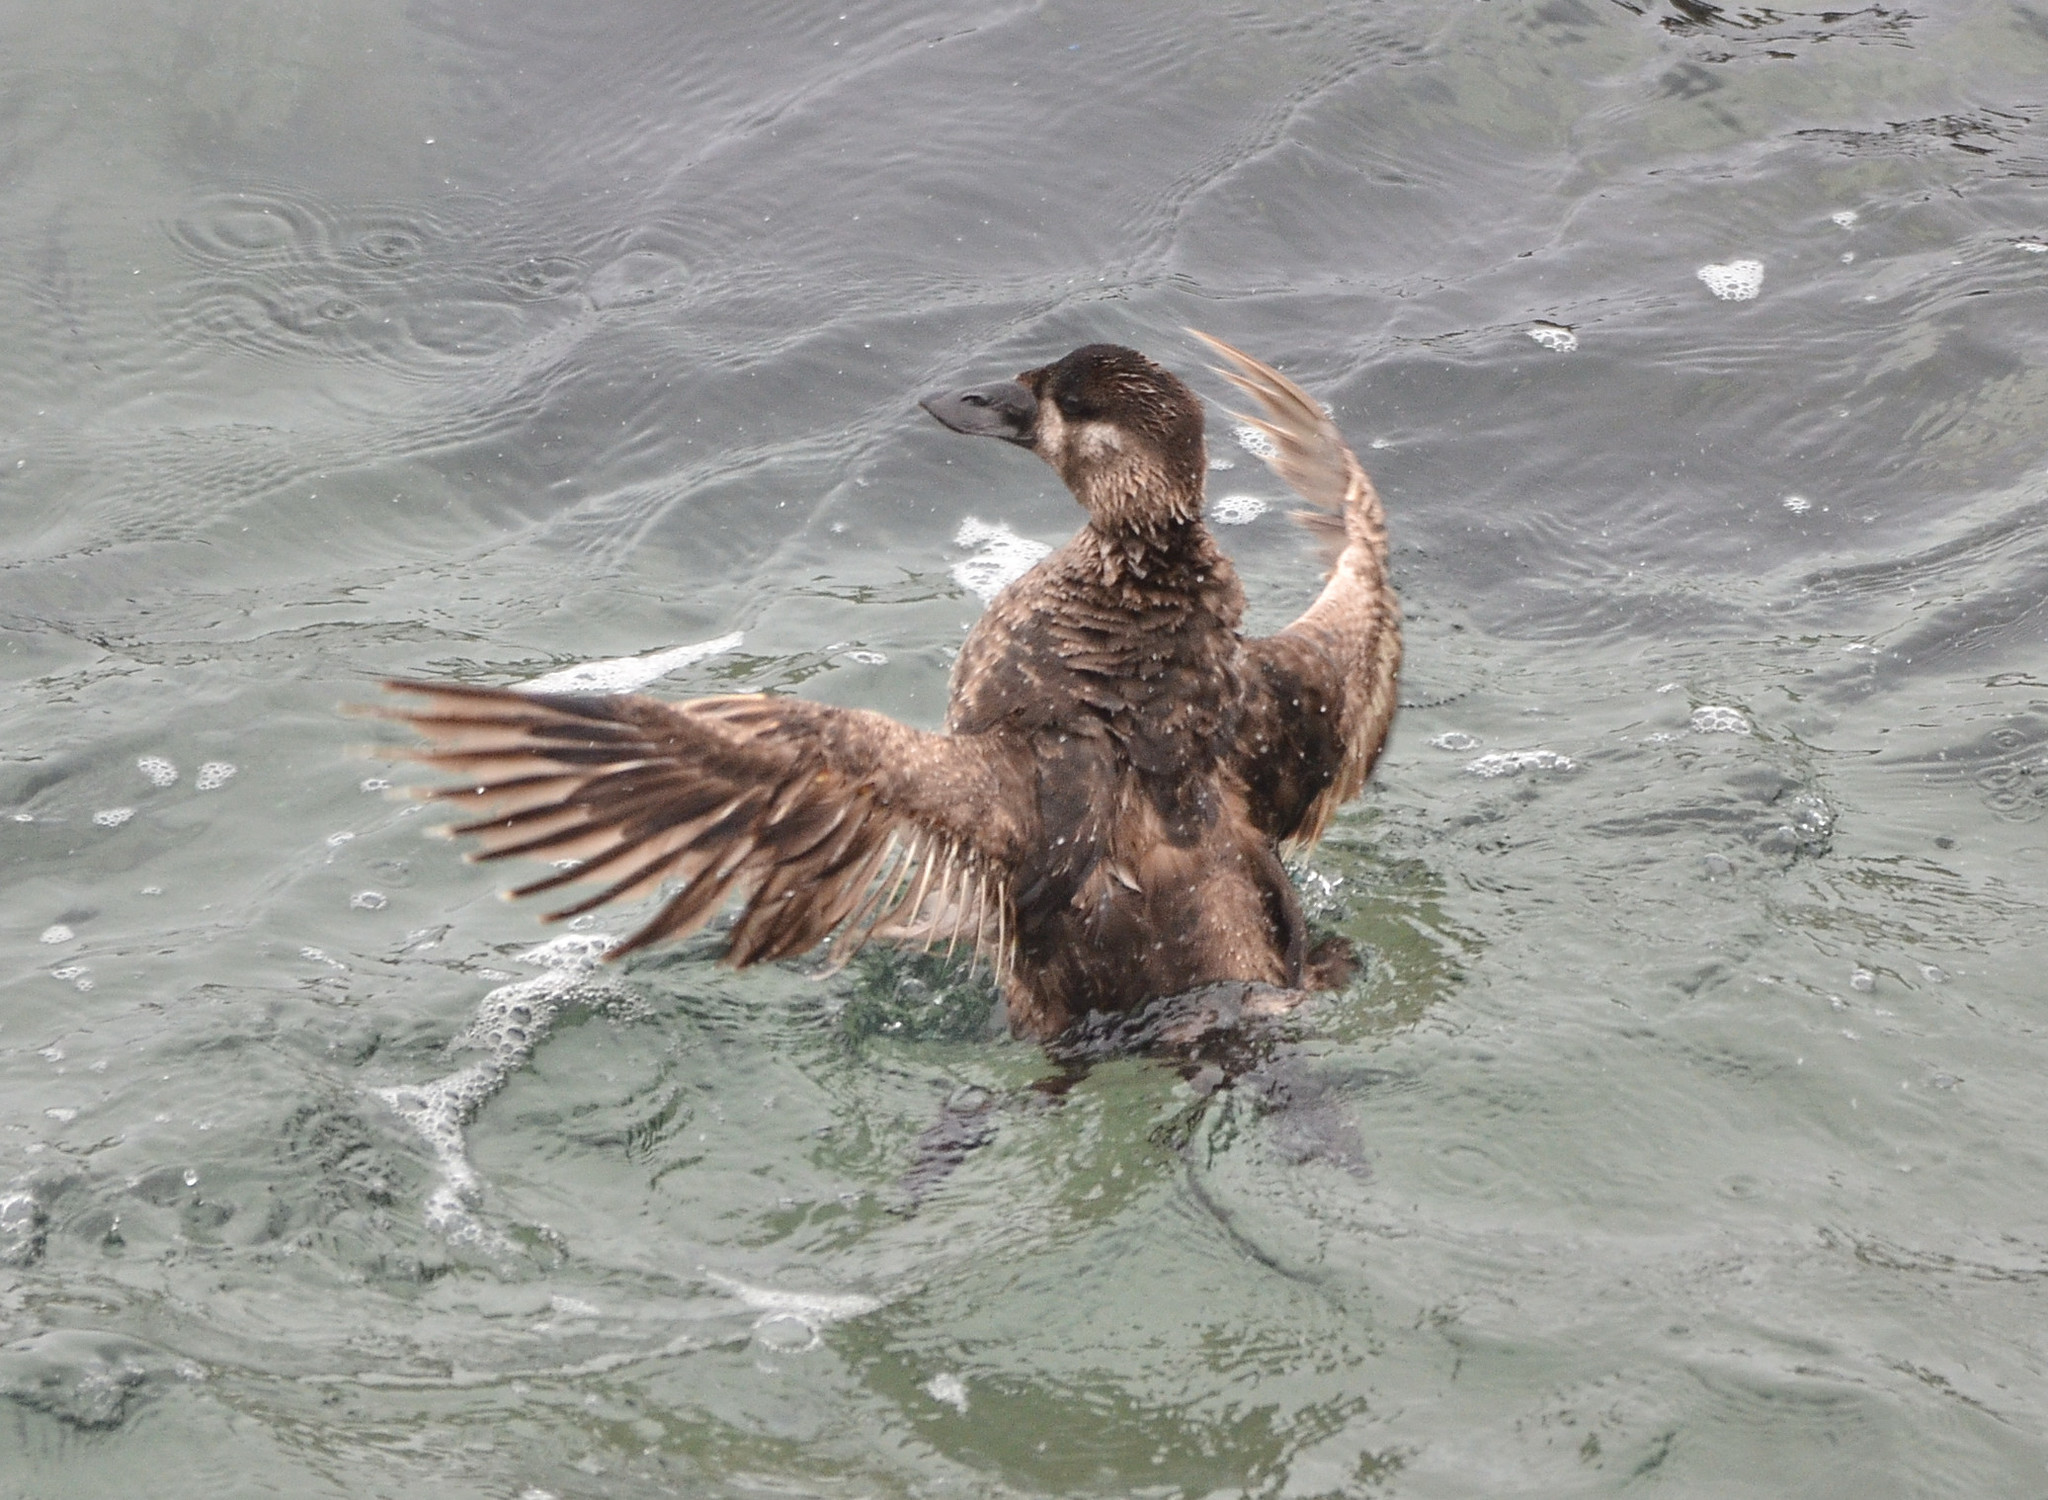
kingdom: Animalia
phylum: Chordata
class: Aves
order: Anseriformes
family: Anatidae
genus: Melanitta
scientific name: Melanitta perspicillata
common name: Surf scoter
